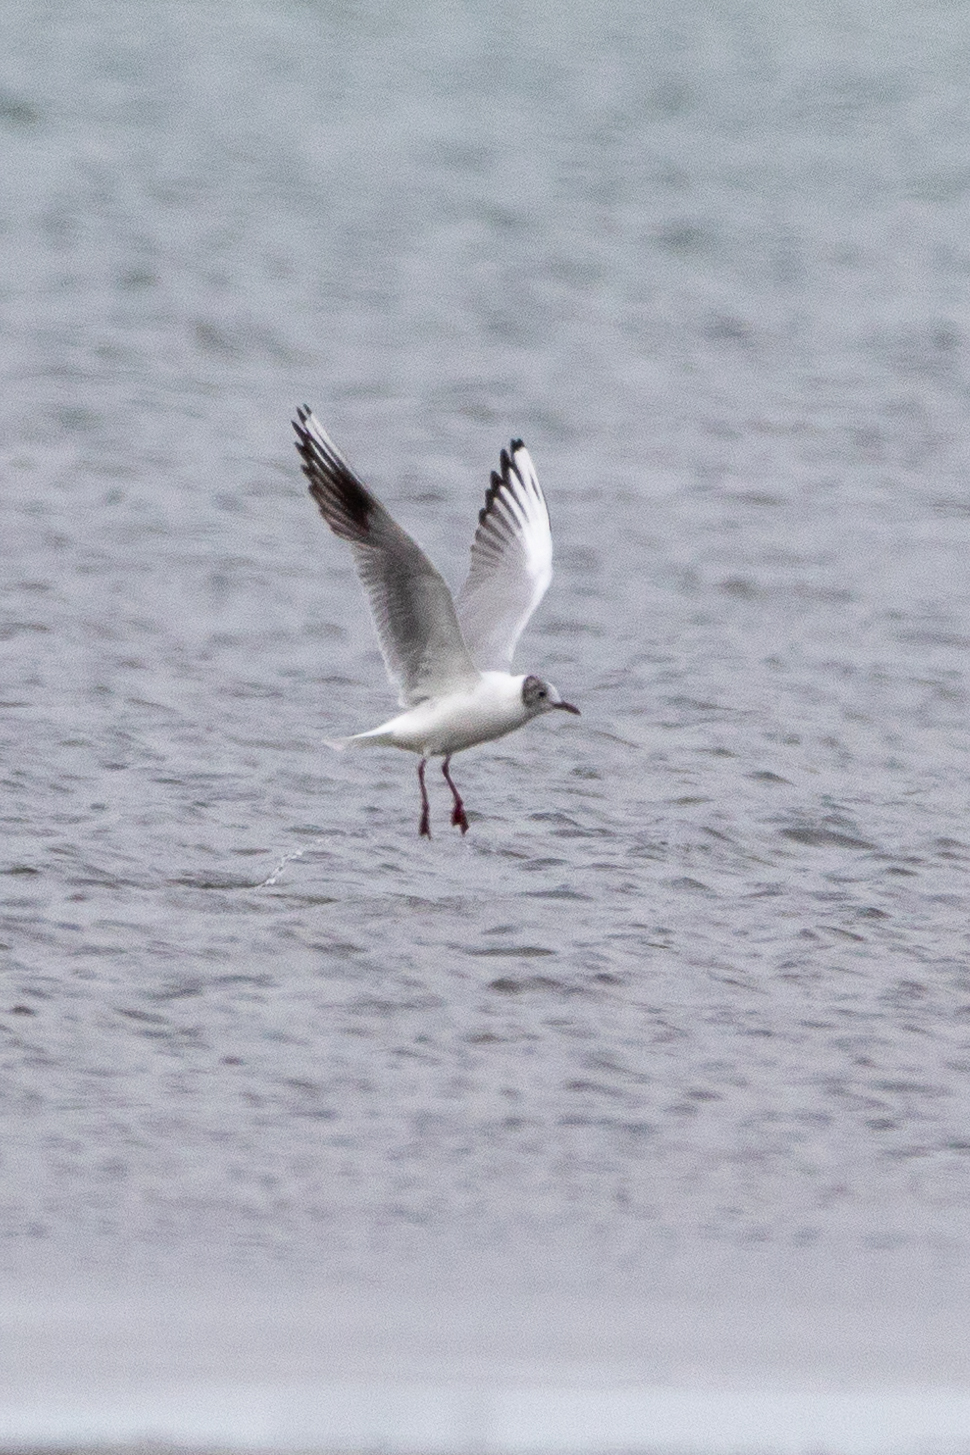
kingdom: Animalia
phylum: Chordata
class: Aves
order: Charadriiformes
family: Laridae
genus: Chroicocephalus
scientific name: Chroicocephalus ridibundus
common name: Black-headed gull
